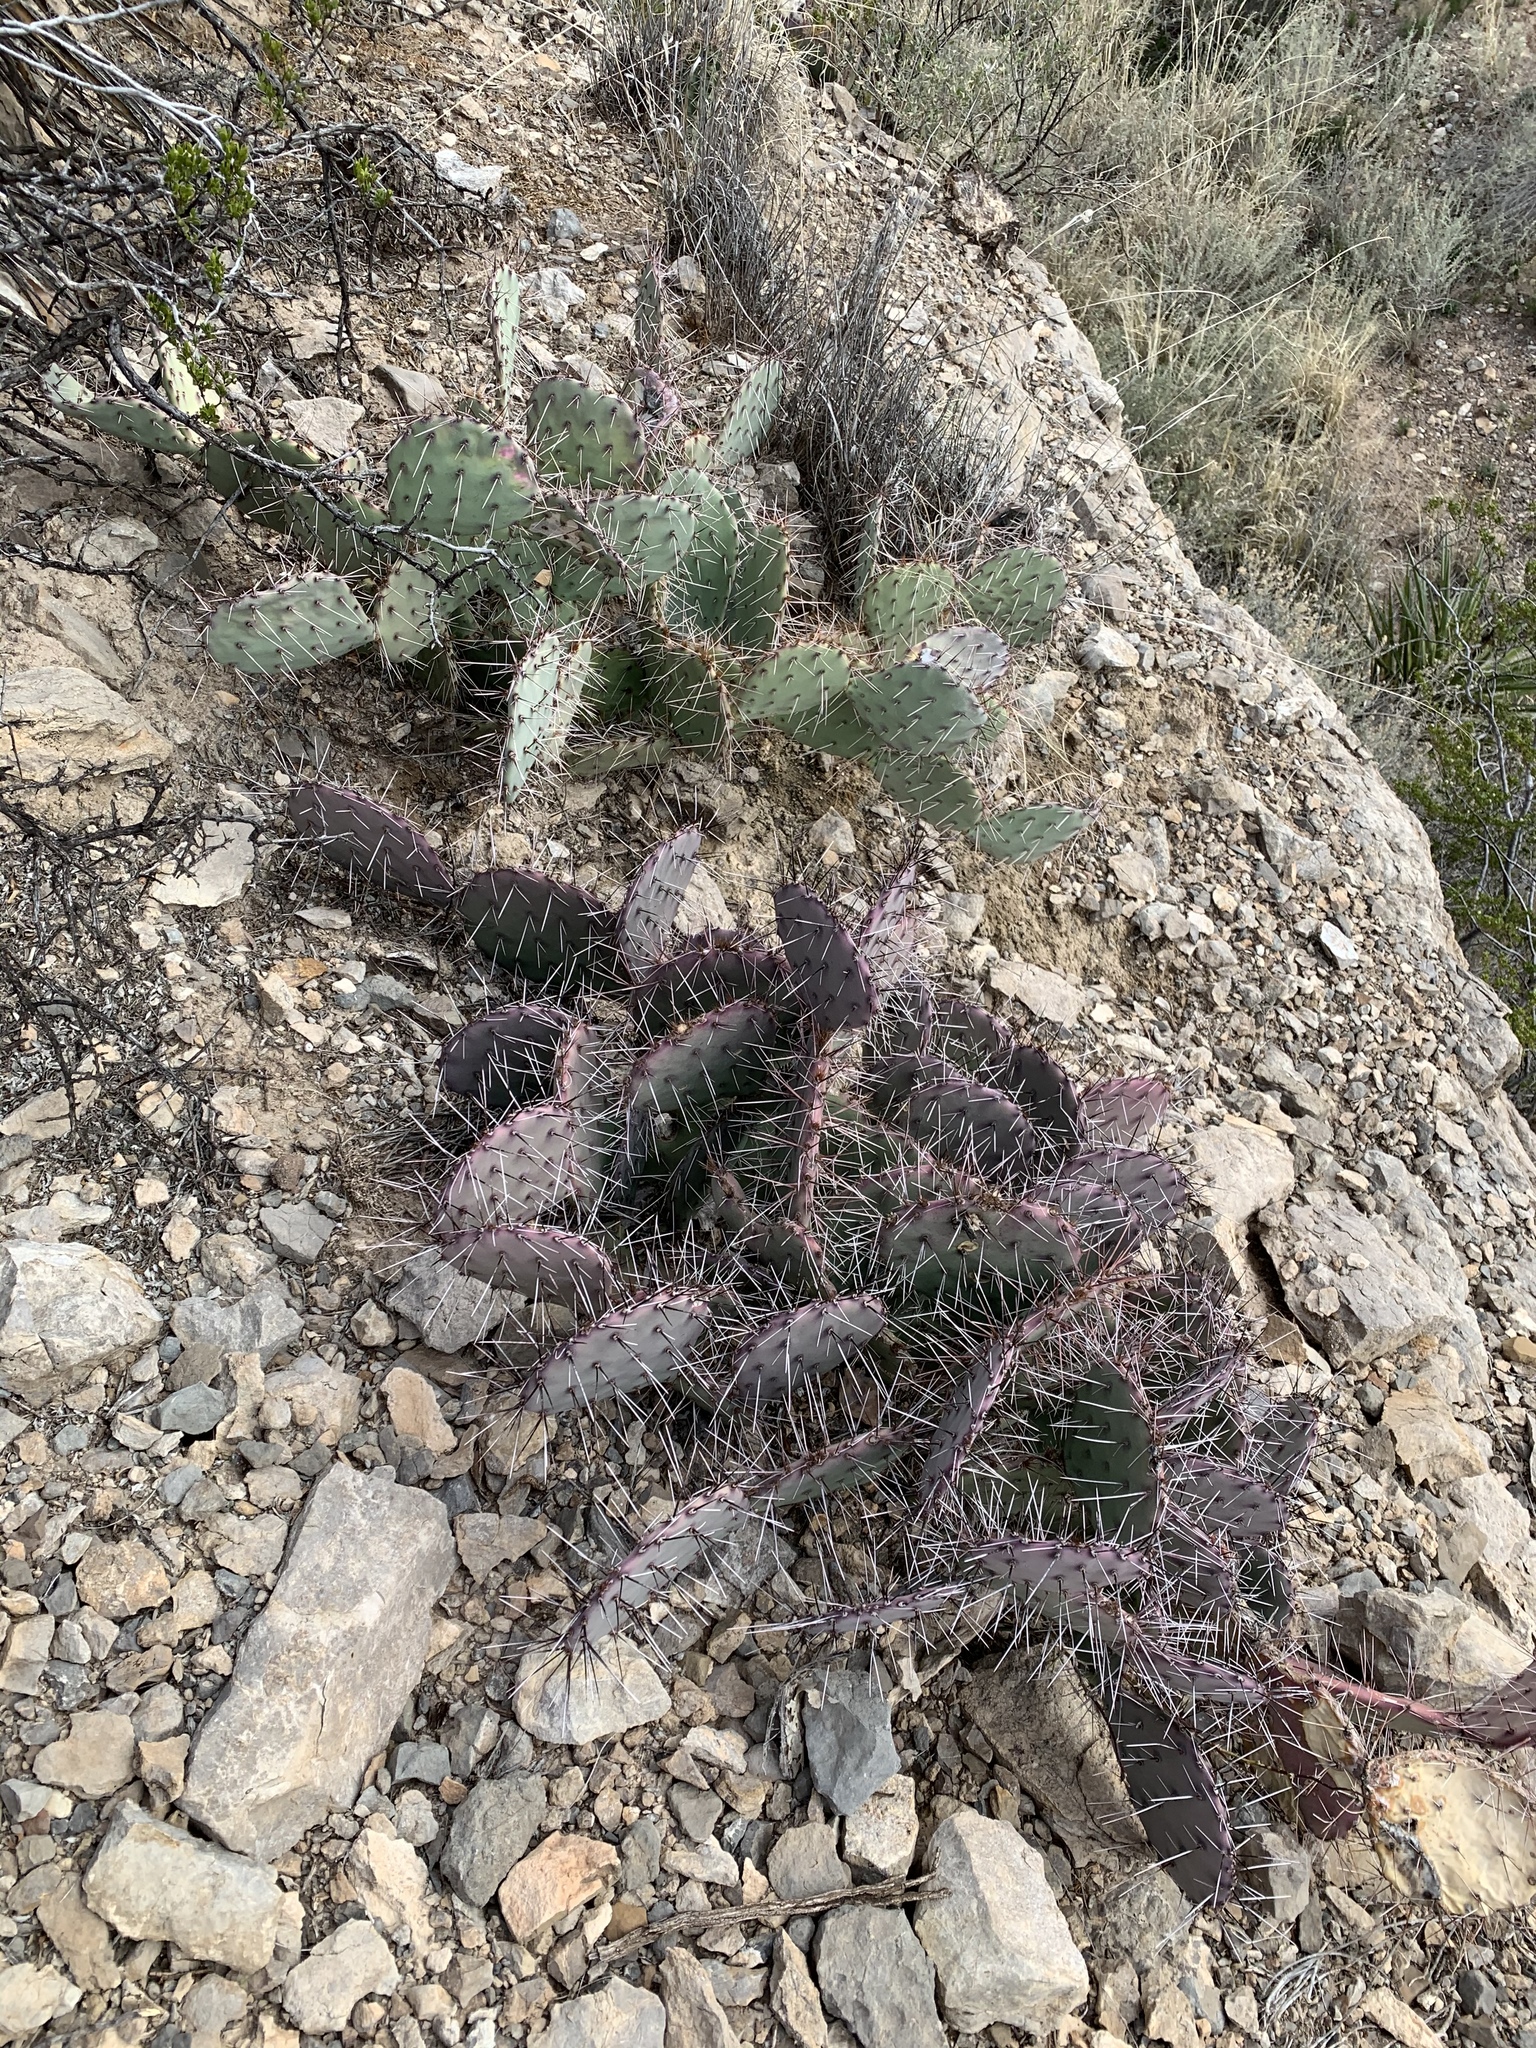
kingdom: Plantae
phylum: Tracheophyta
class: Magnoliopsida
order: Caryophyllales
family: Cactaceae
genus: Opuntia
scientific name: Opuntia macrocentra
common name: Purple prickly-pear
